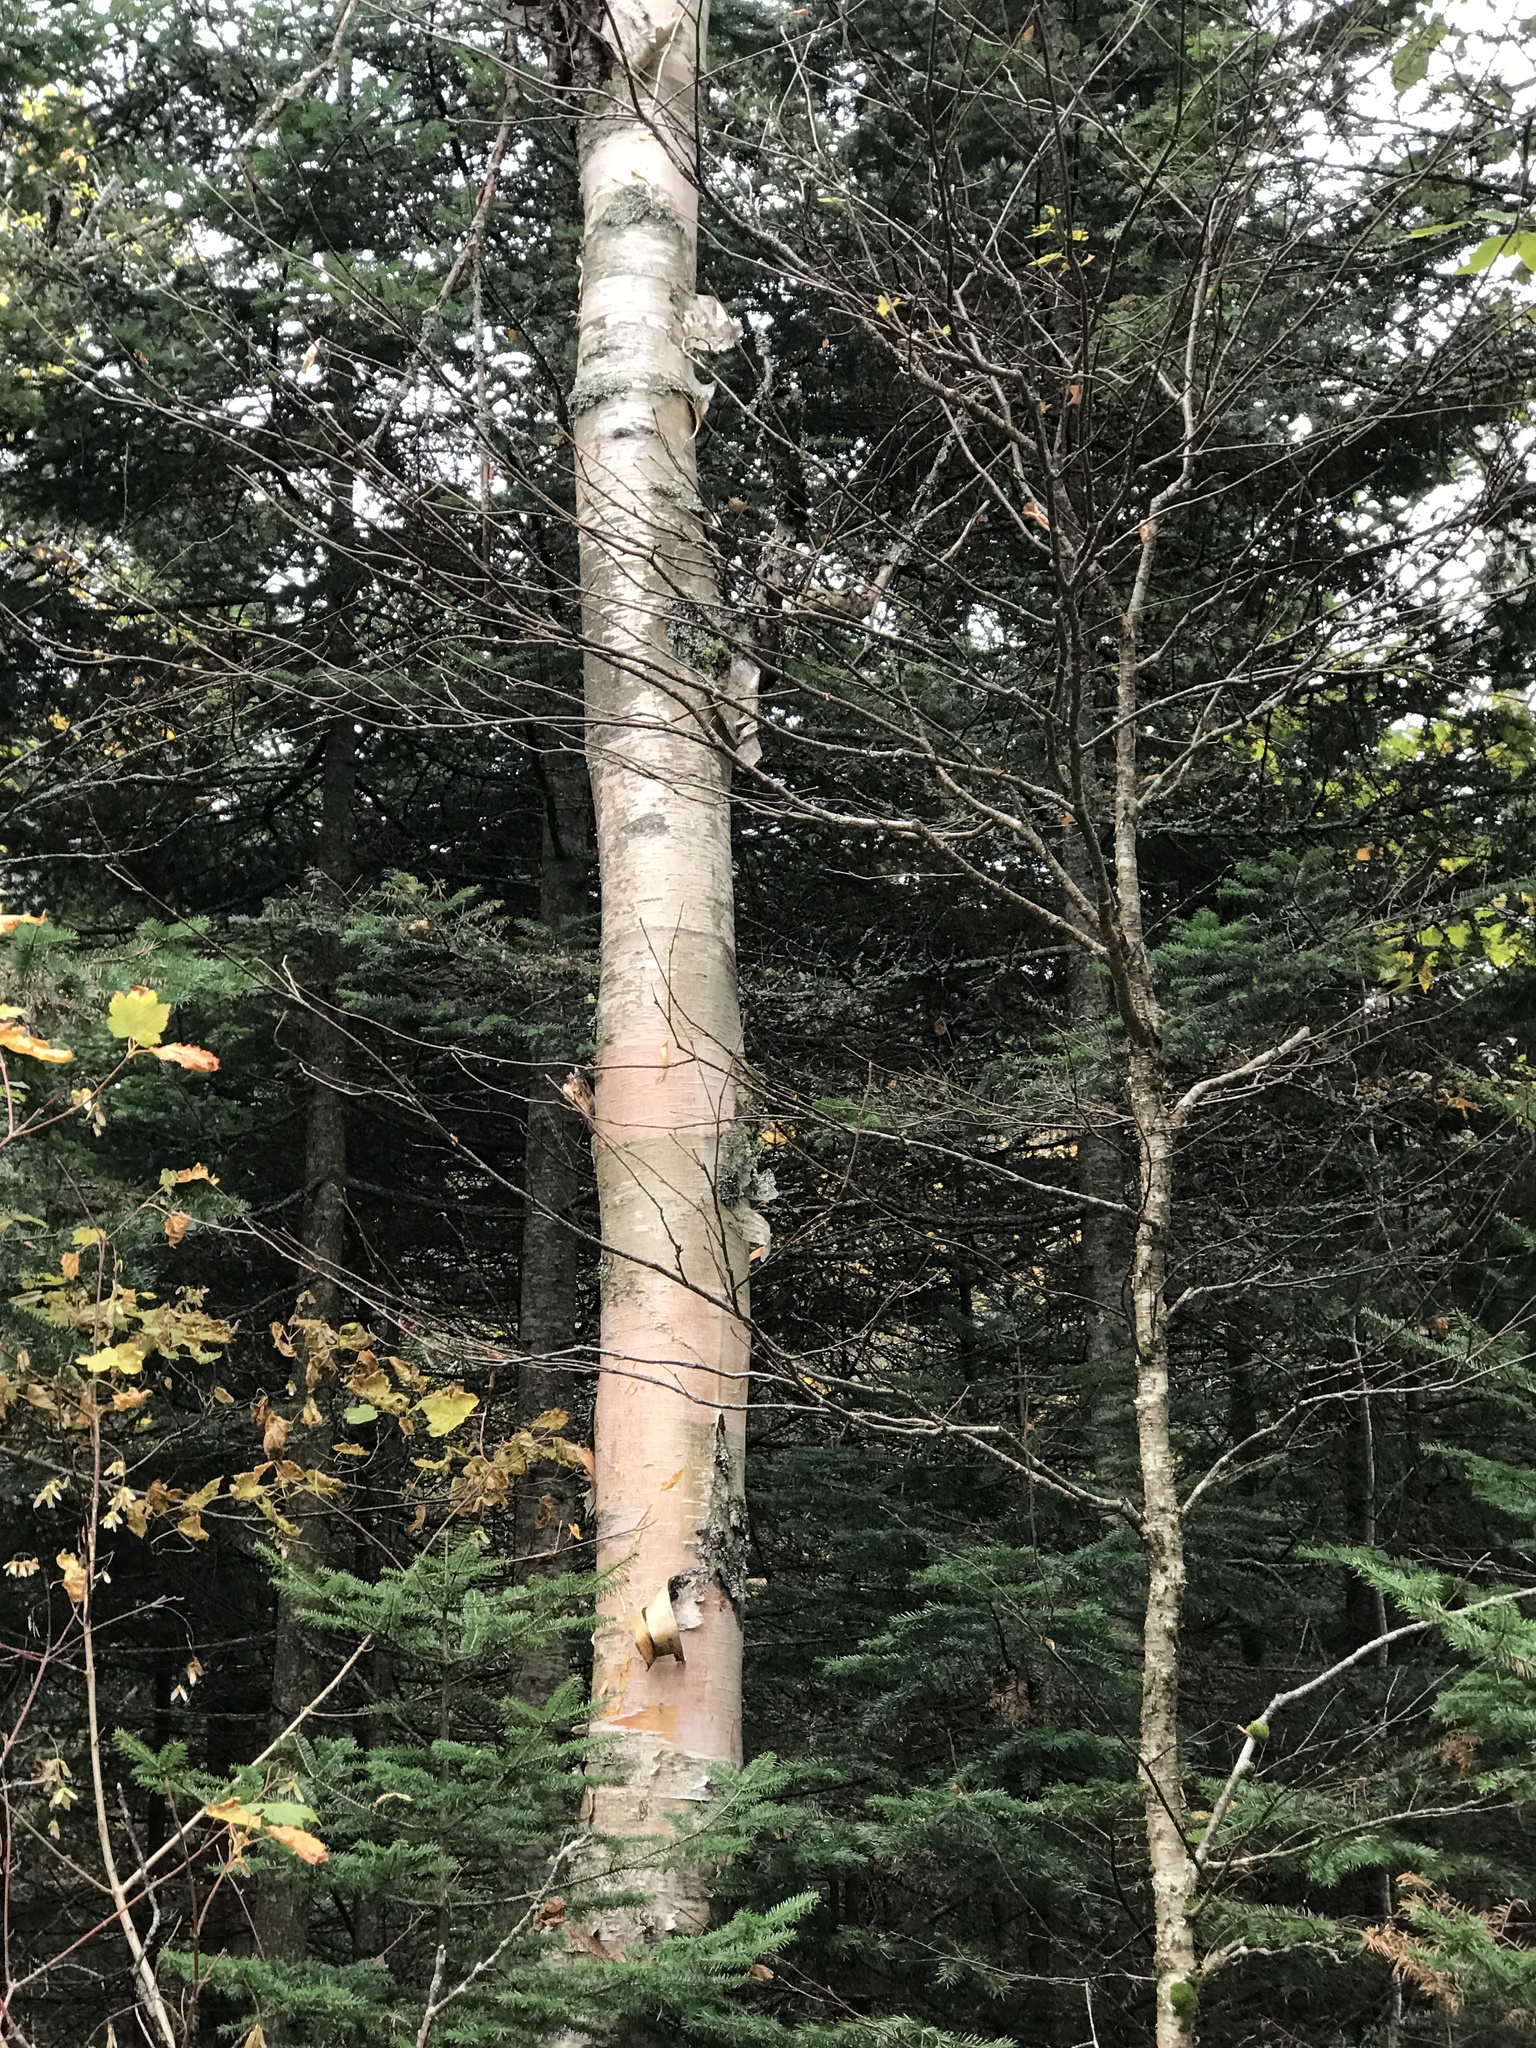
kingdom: Plantae
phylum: Tracheophyta
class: Magnoliopsida
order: Fagales
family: Betulaceae
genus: Betula
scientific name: Betula cordifolia
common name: Mountain white birch
